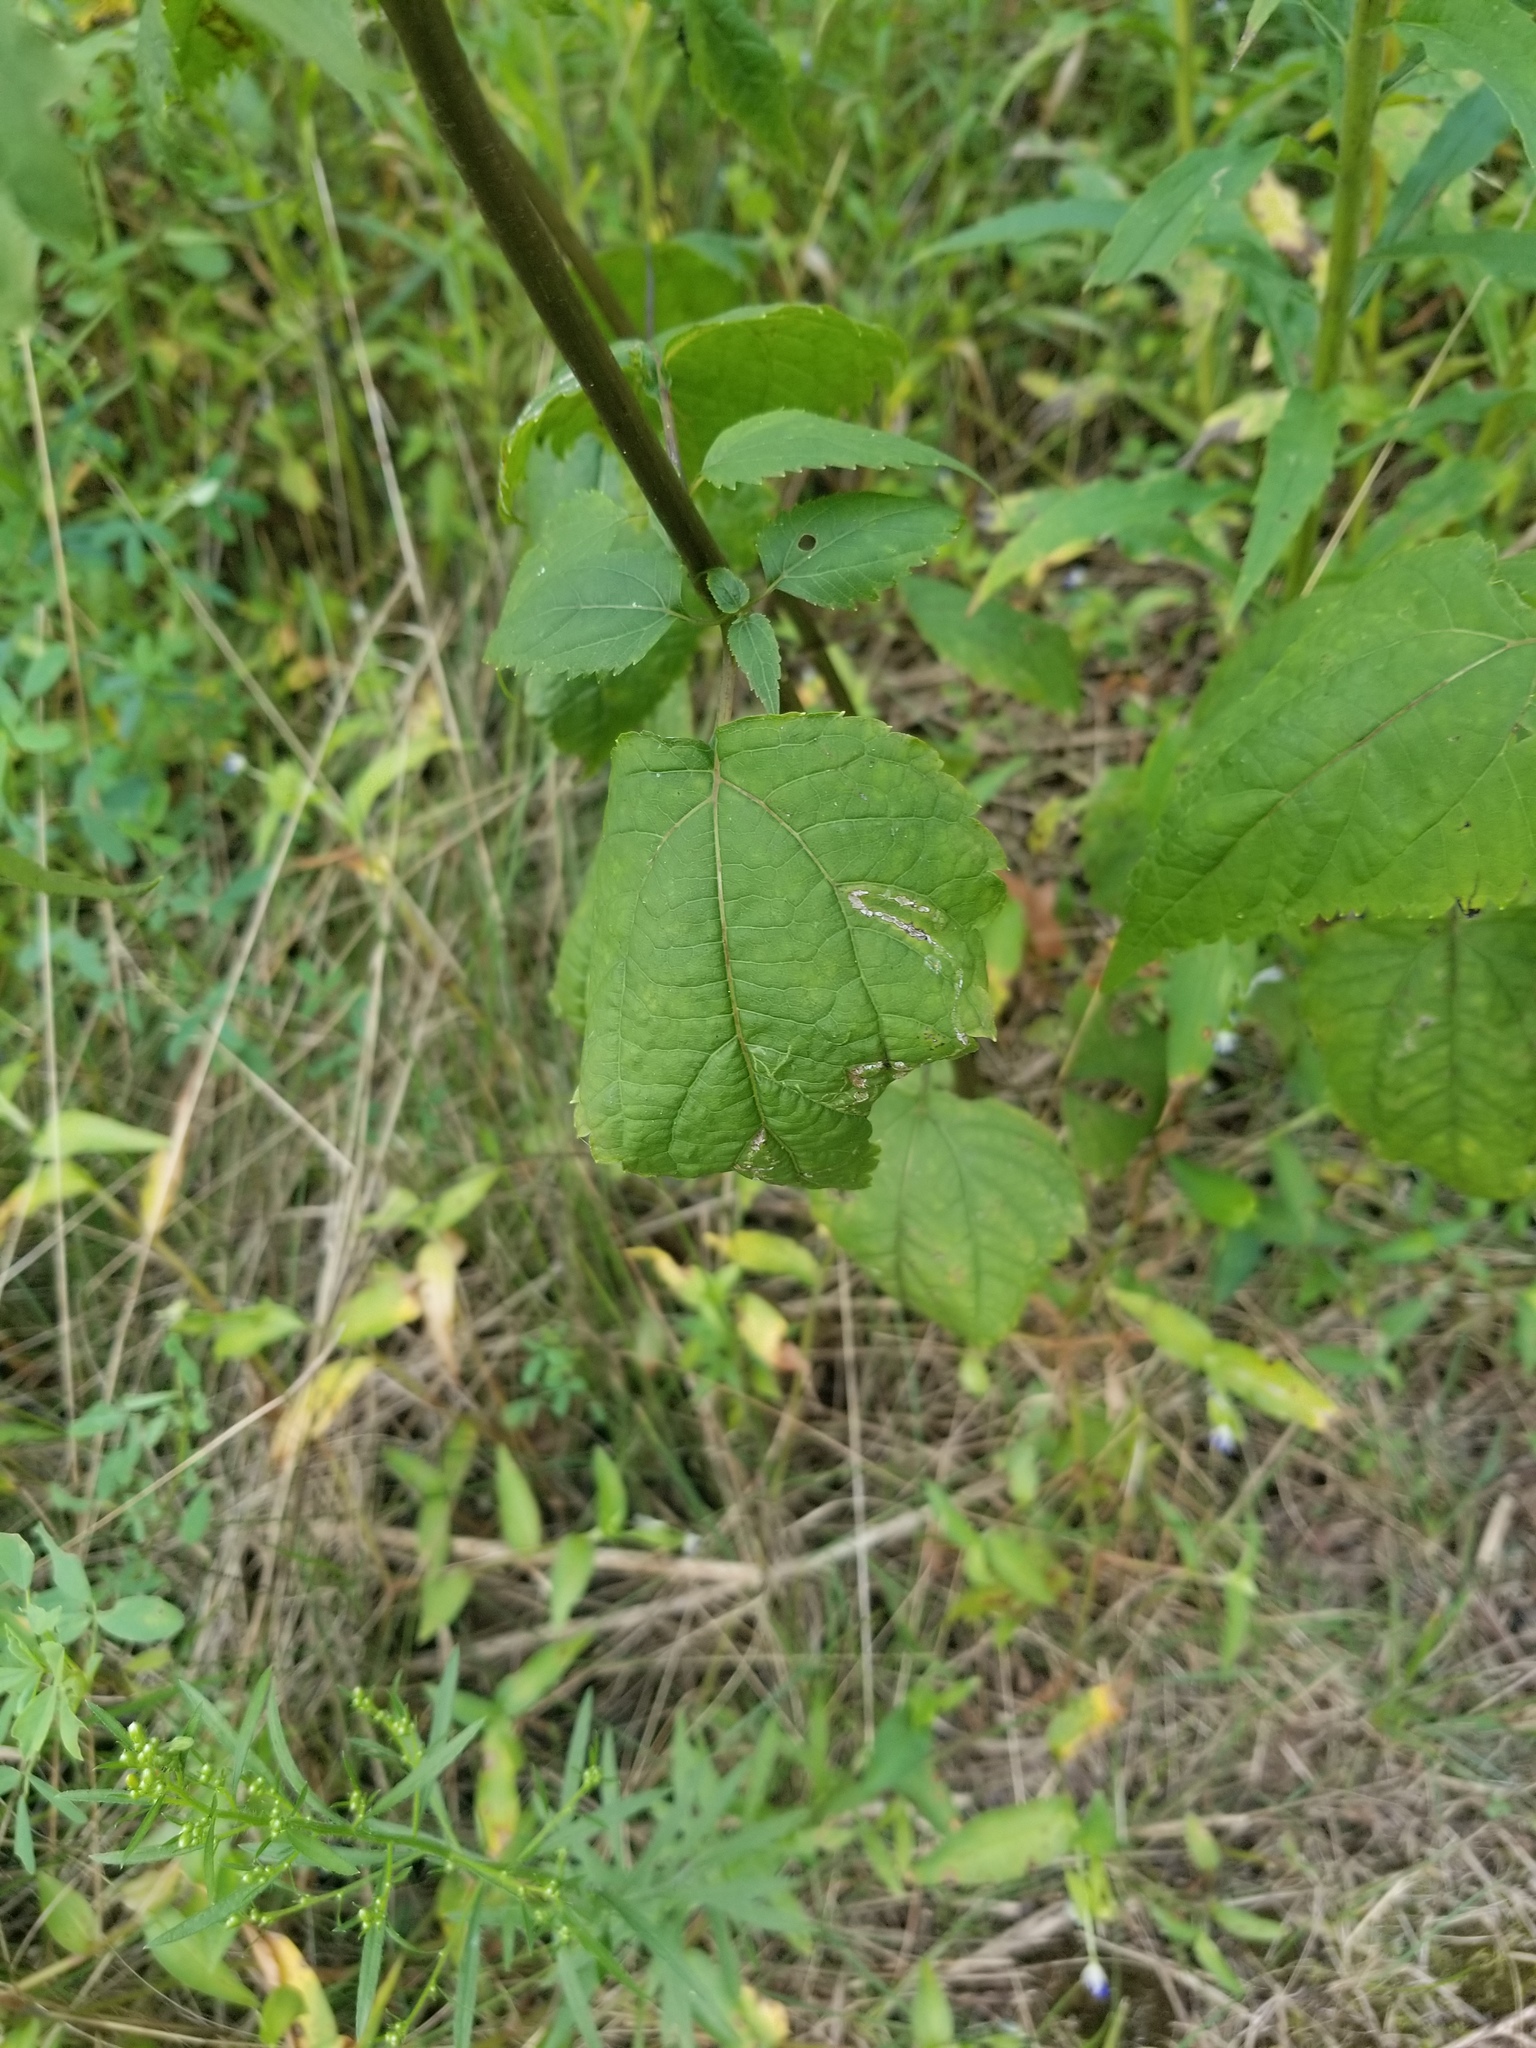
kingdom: Plantae
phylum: Tracheophyta
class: Magnoliopsida
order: Asterales
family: Asteraceae
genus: Ageratina
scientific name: Ageratina altissima
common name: White snakeroot
